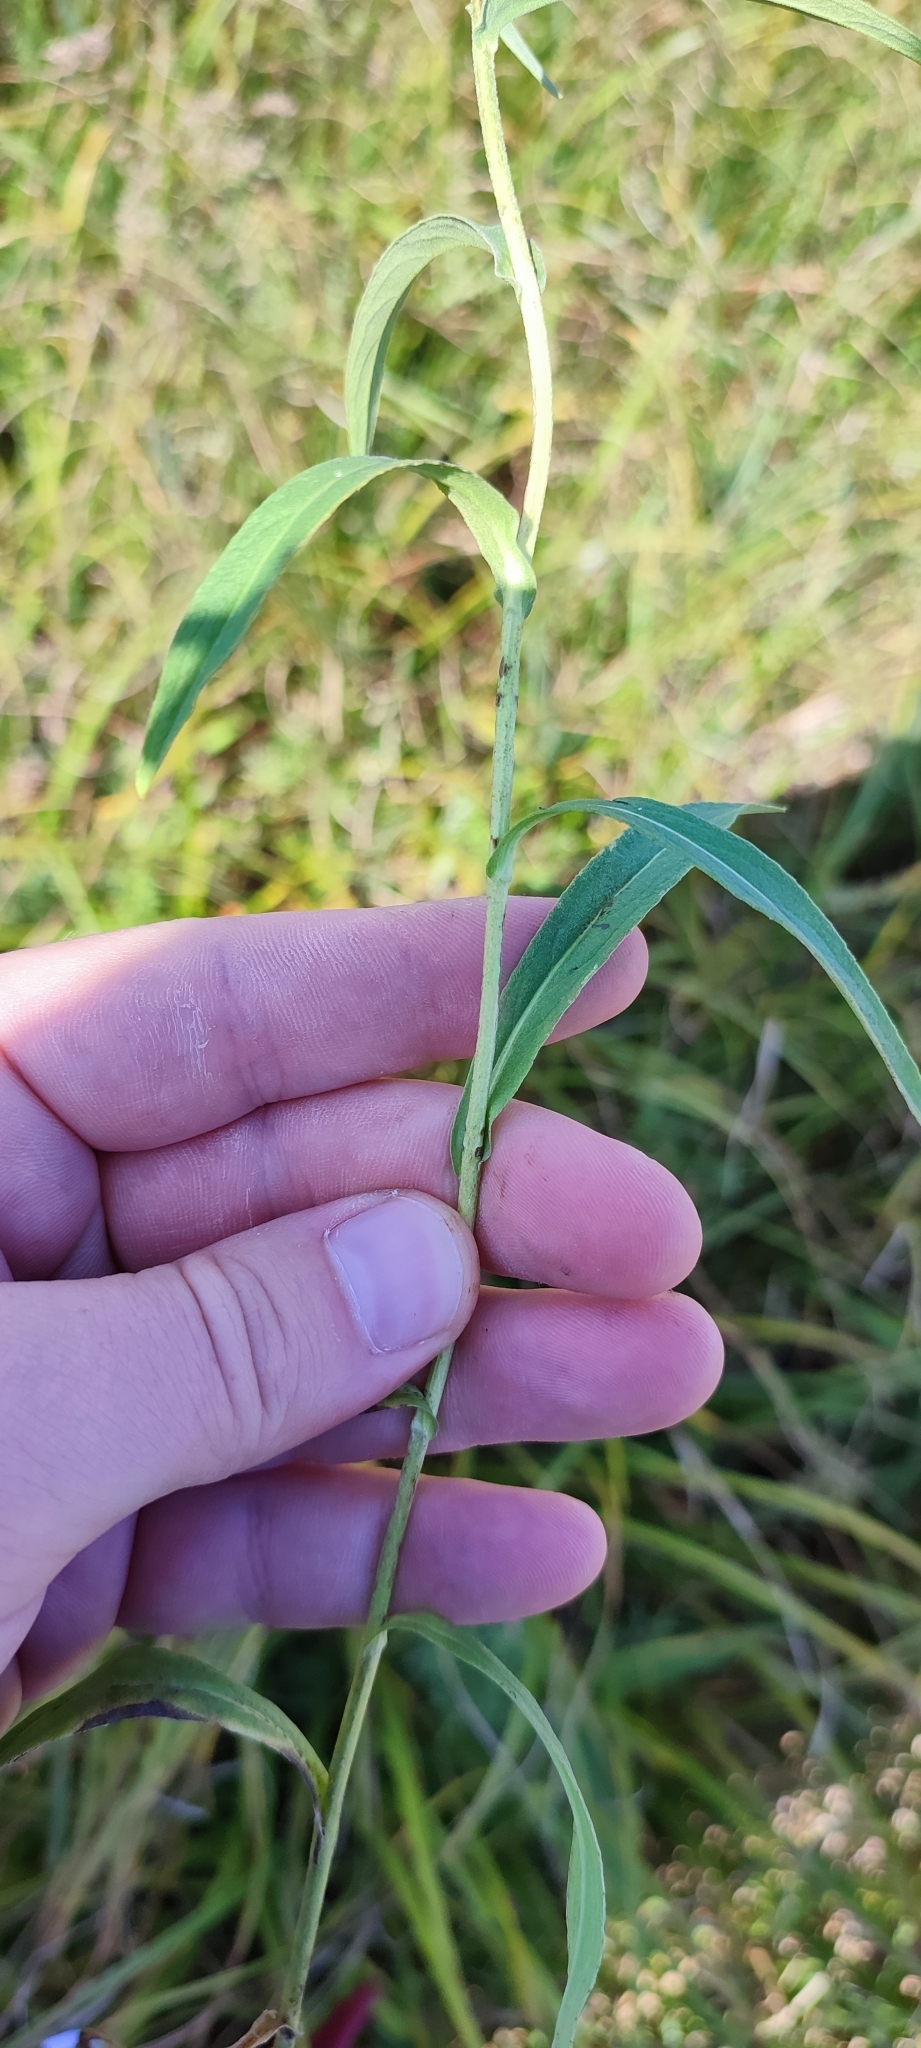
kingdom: Plantae
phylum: Tracheophyta
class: Magnoliopsida
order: Asterales
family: Asteraceae
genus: Pentanema
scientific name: Pentanema britannicum
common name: British elecampane
